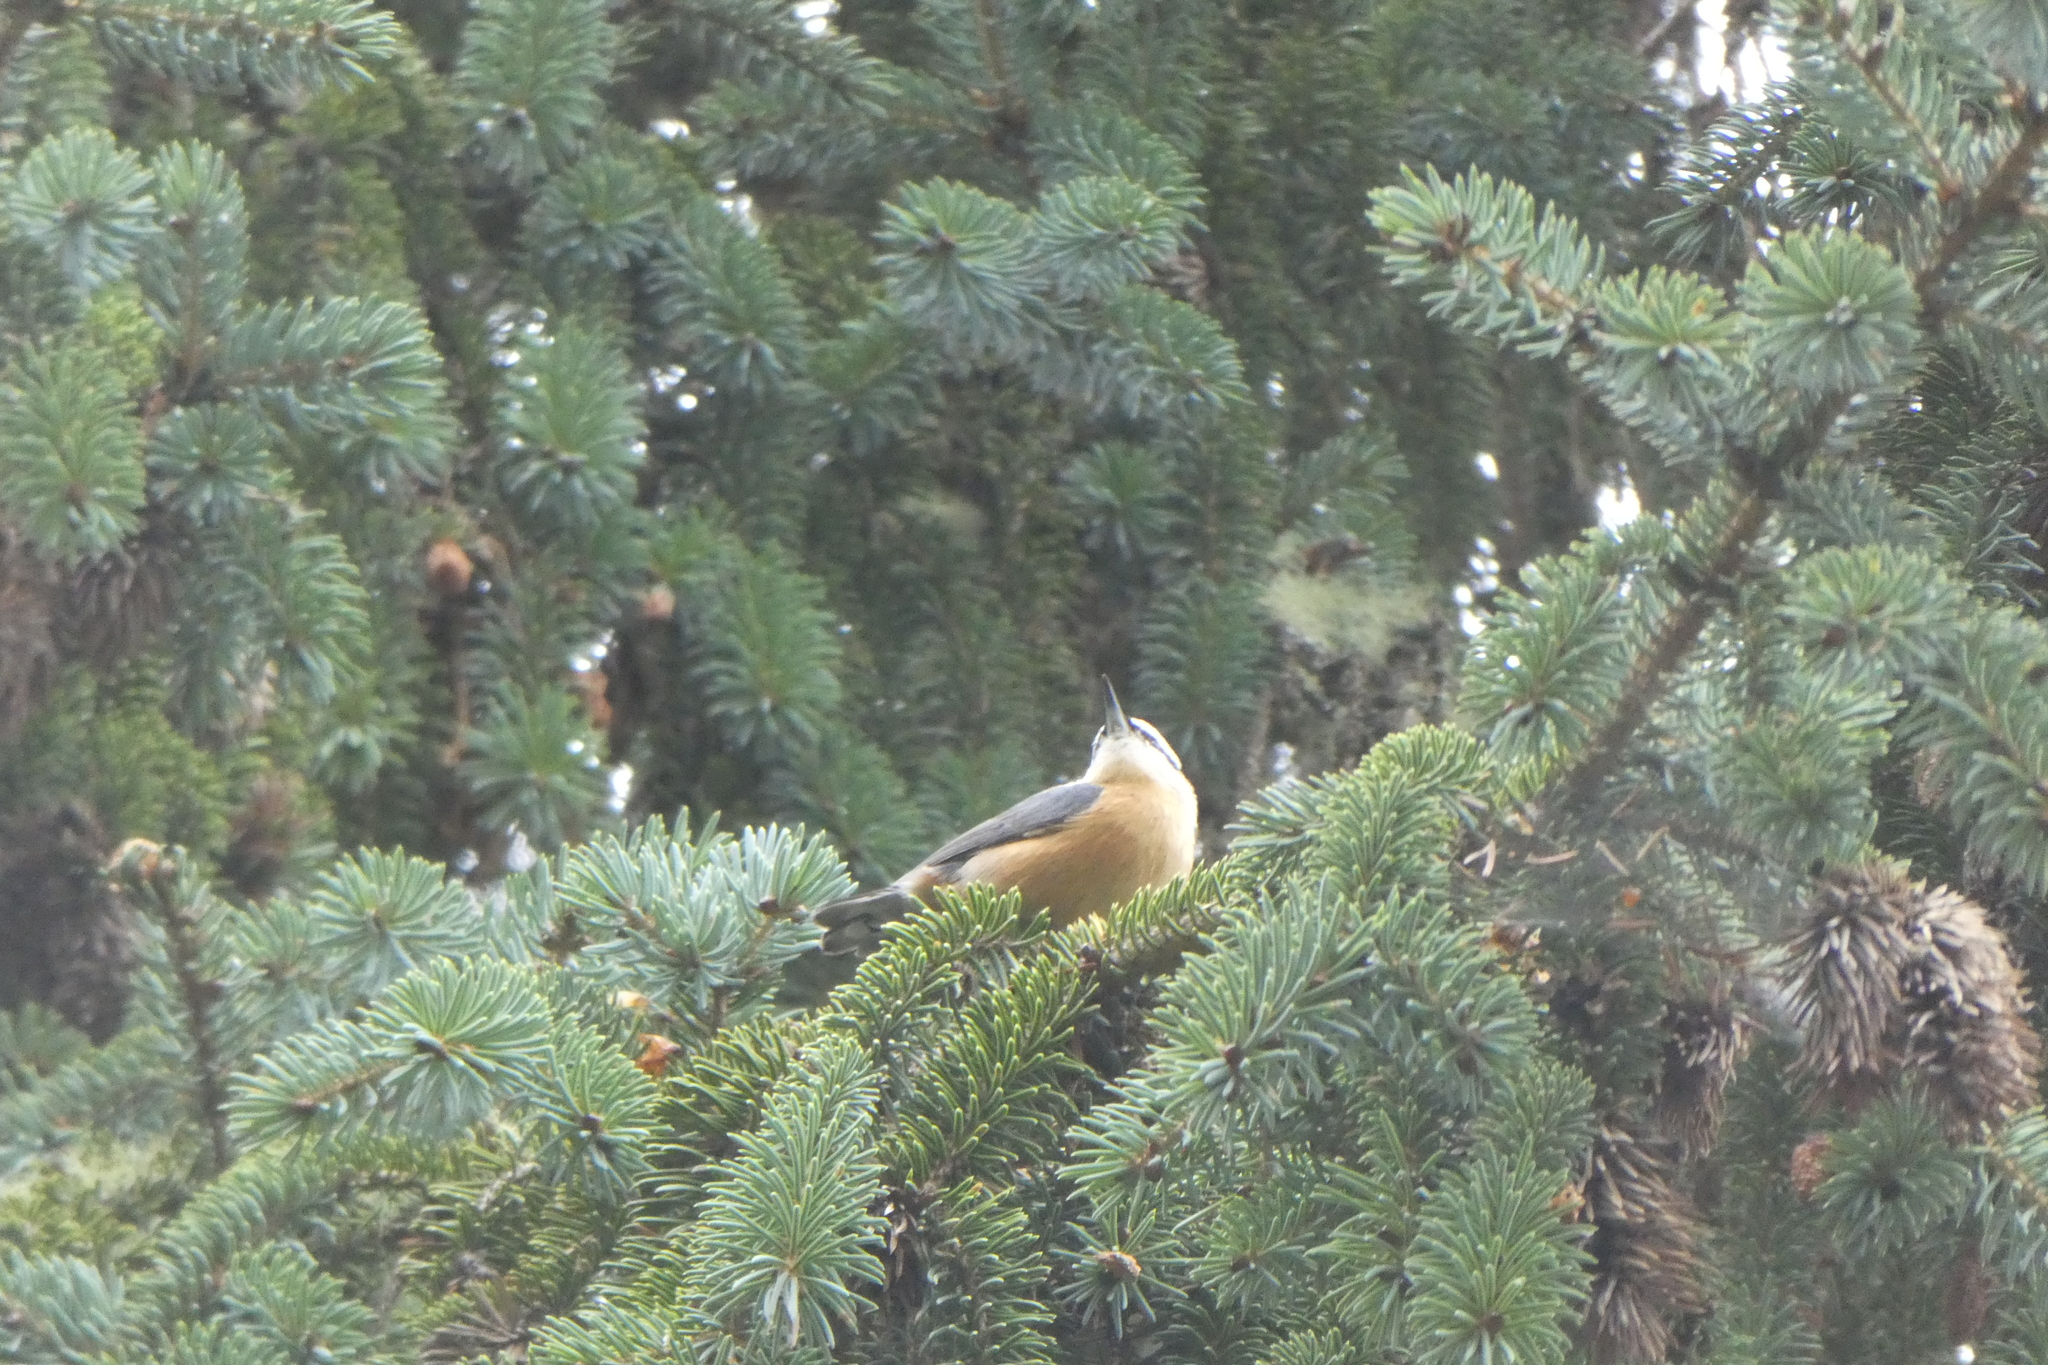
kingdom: Animalia
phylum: Chordata
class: Aves
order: Passeriformes
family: Sittidae
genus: Sitta
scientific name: Sitta canadensis
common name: Red-breasted nuthatch
